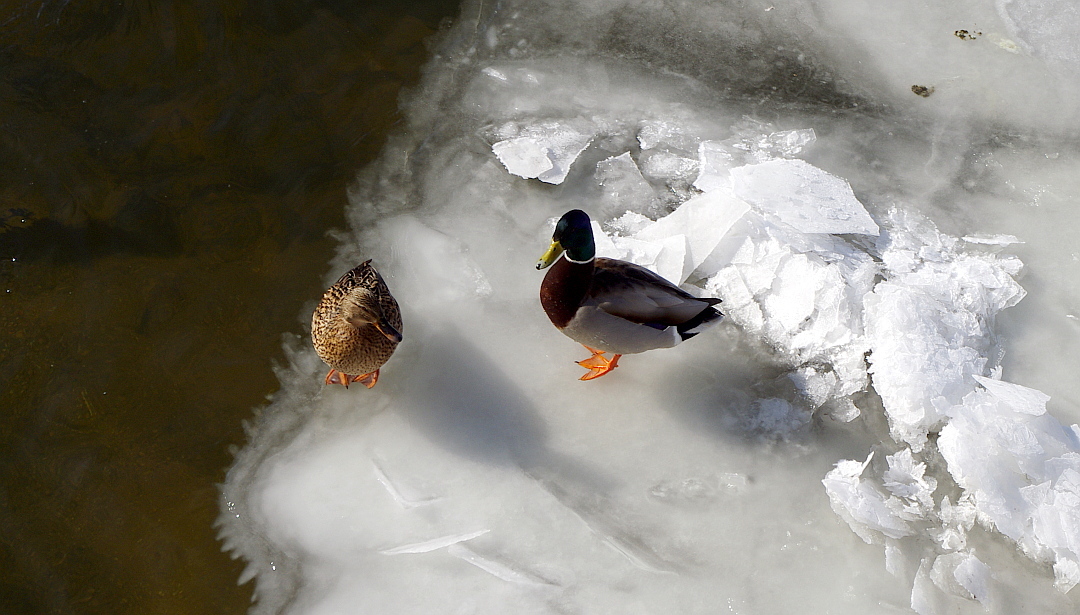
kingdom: Animalia
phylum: Chordata
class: Aves
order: Anseriformes
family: Anatidae
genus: Anas
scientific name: Anas platyrhynchos
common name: Mallard
